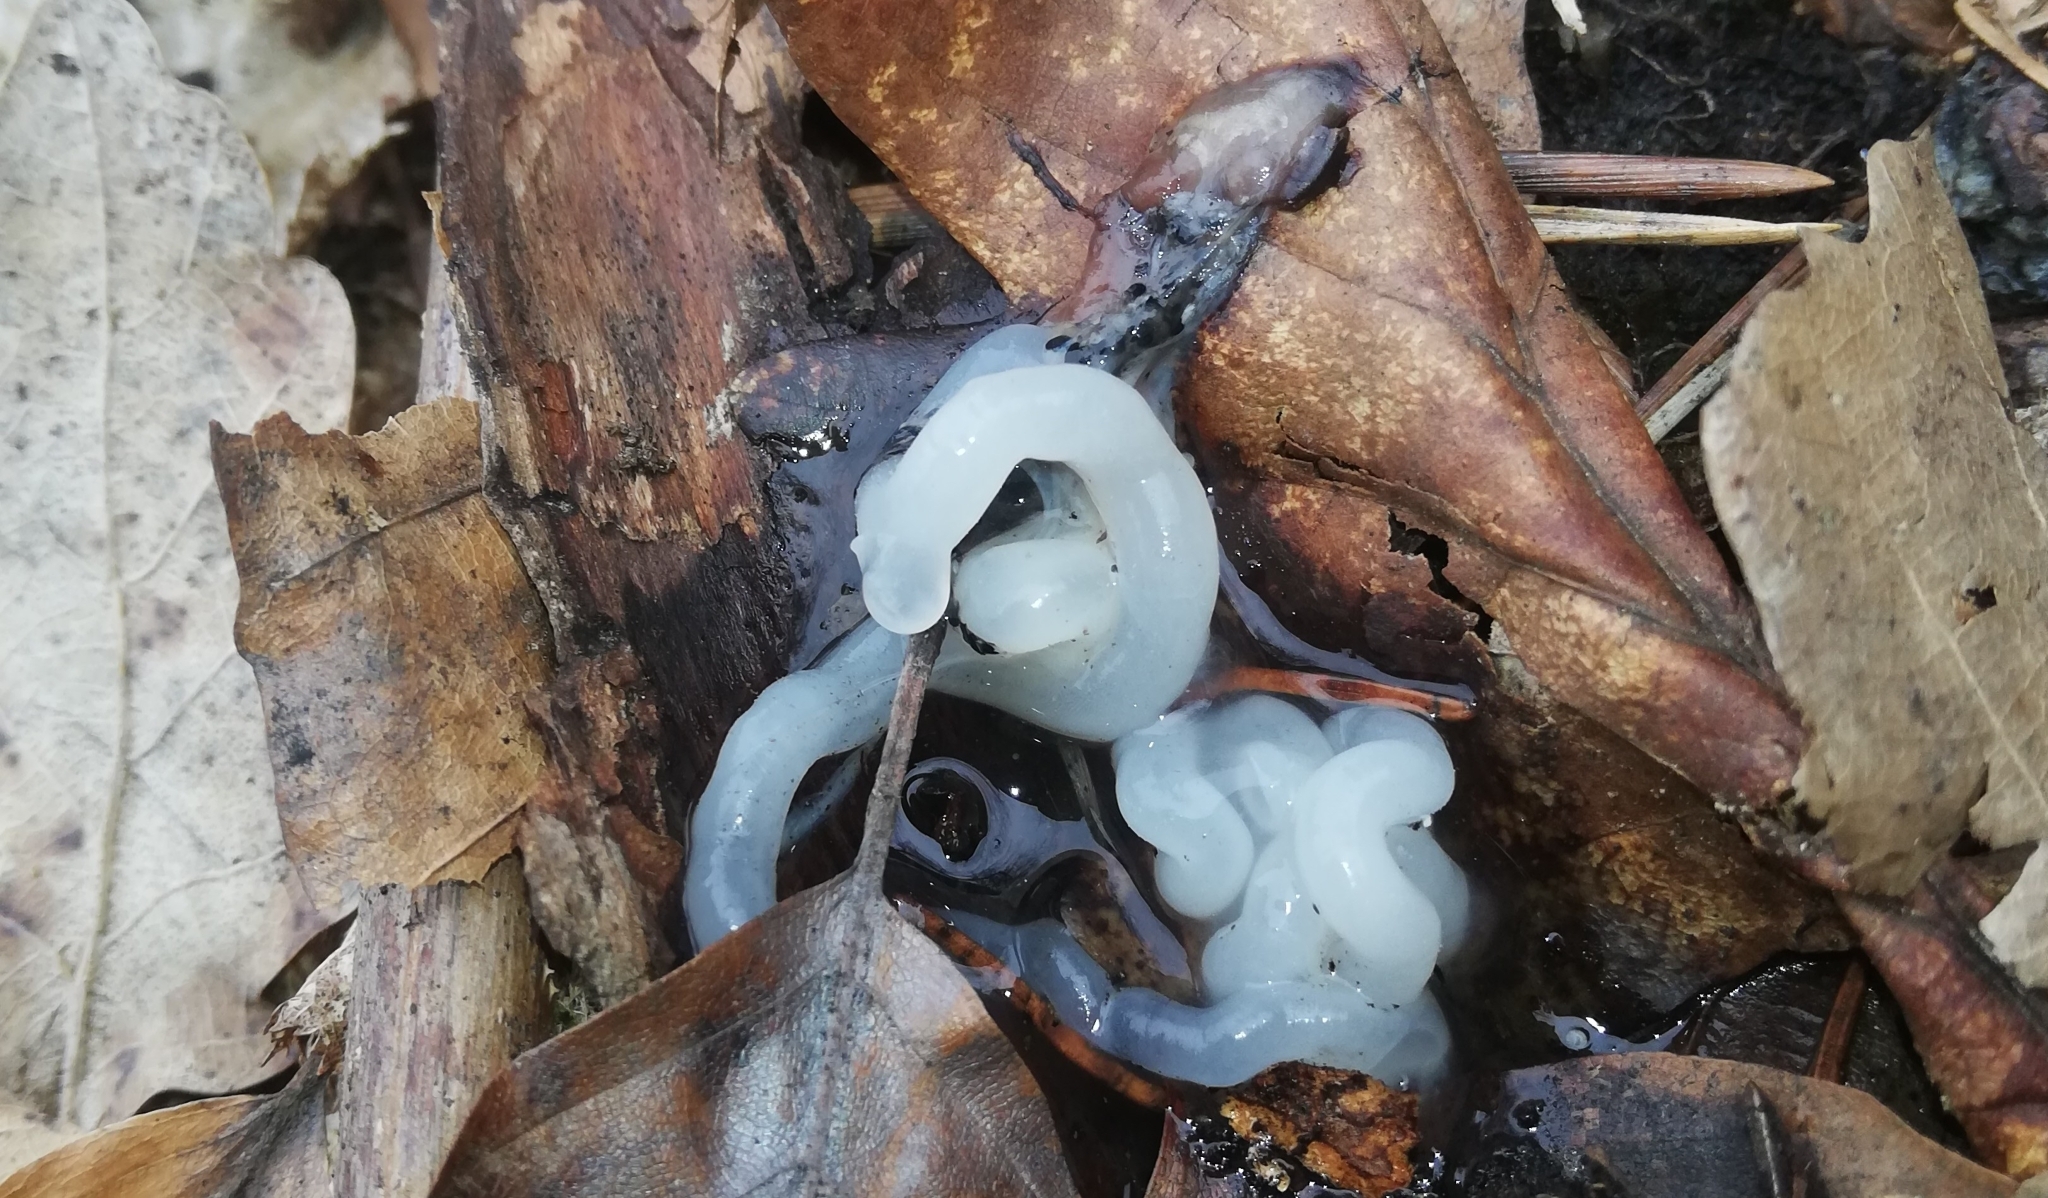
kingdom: Animalia
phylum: Chordata
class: Amphibia
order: Anura
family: Bufonidae
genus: Bufo
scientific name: Bufo bufo
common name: Common toad
